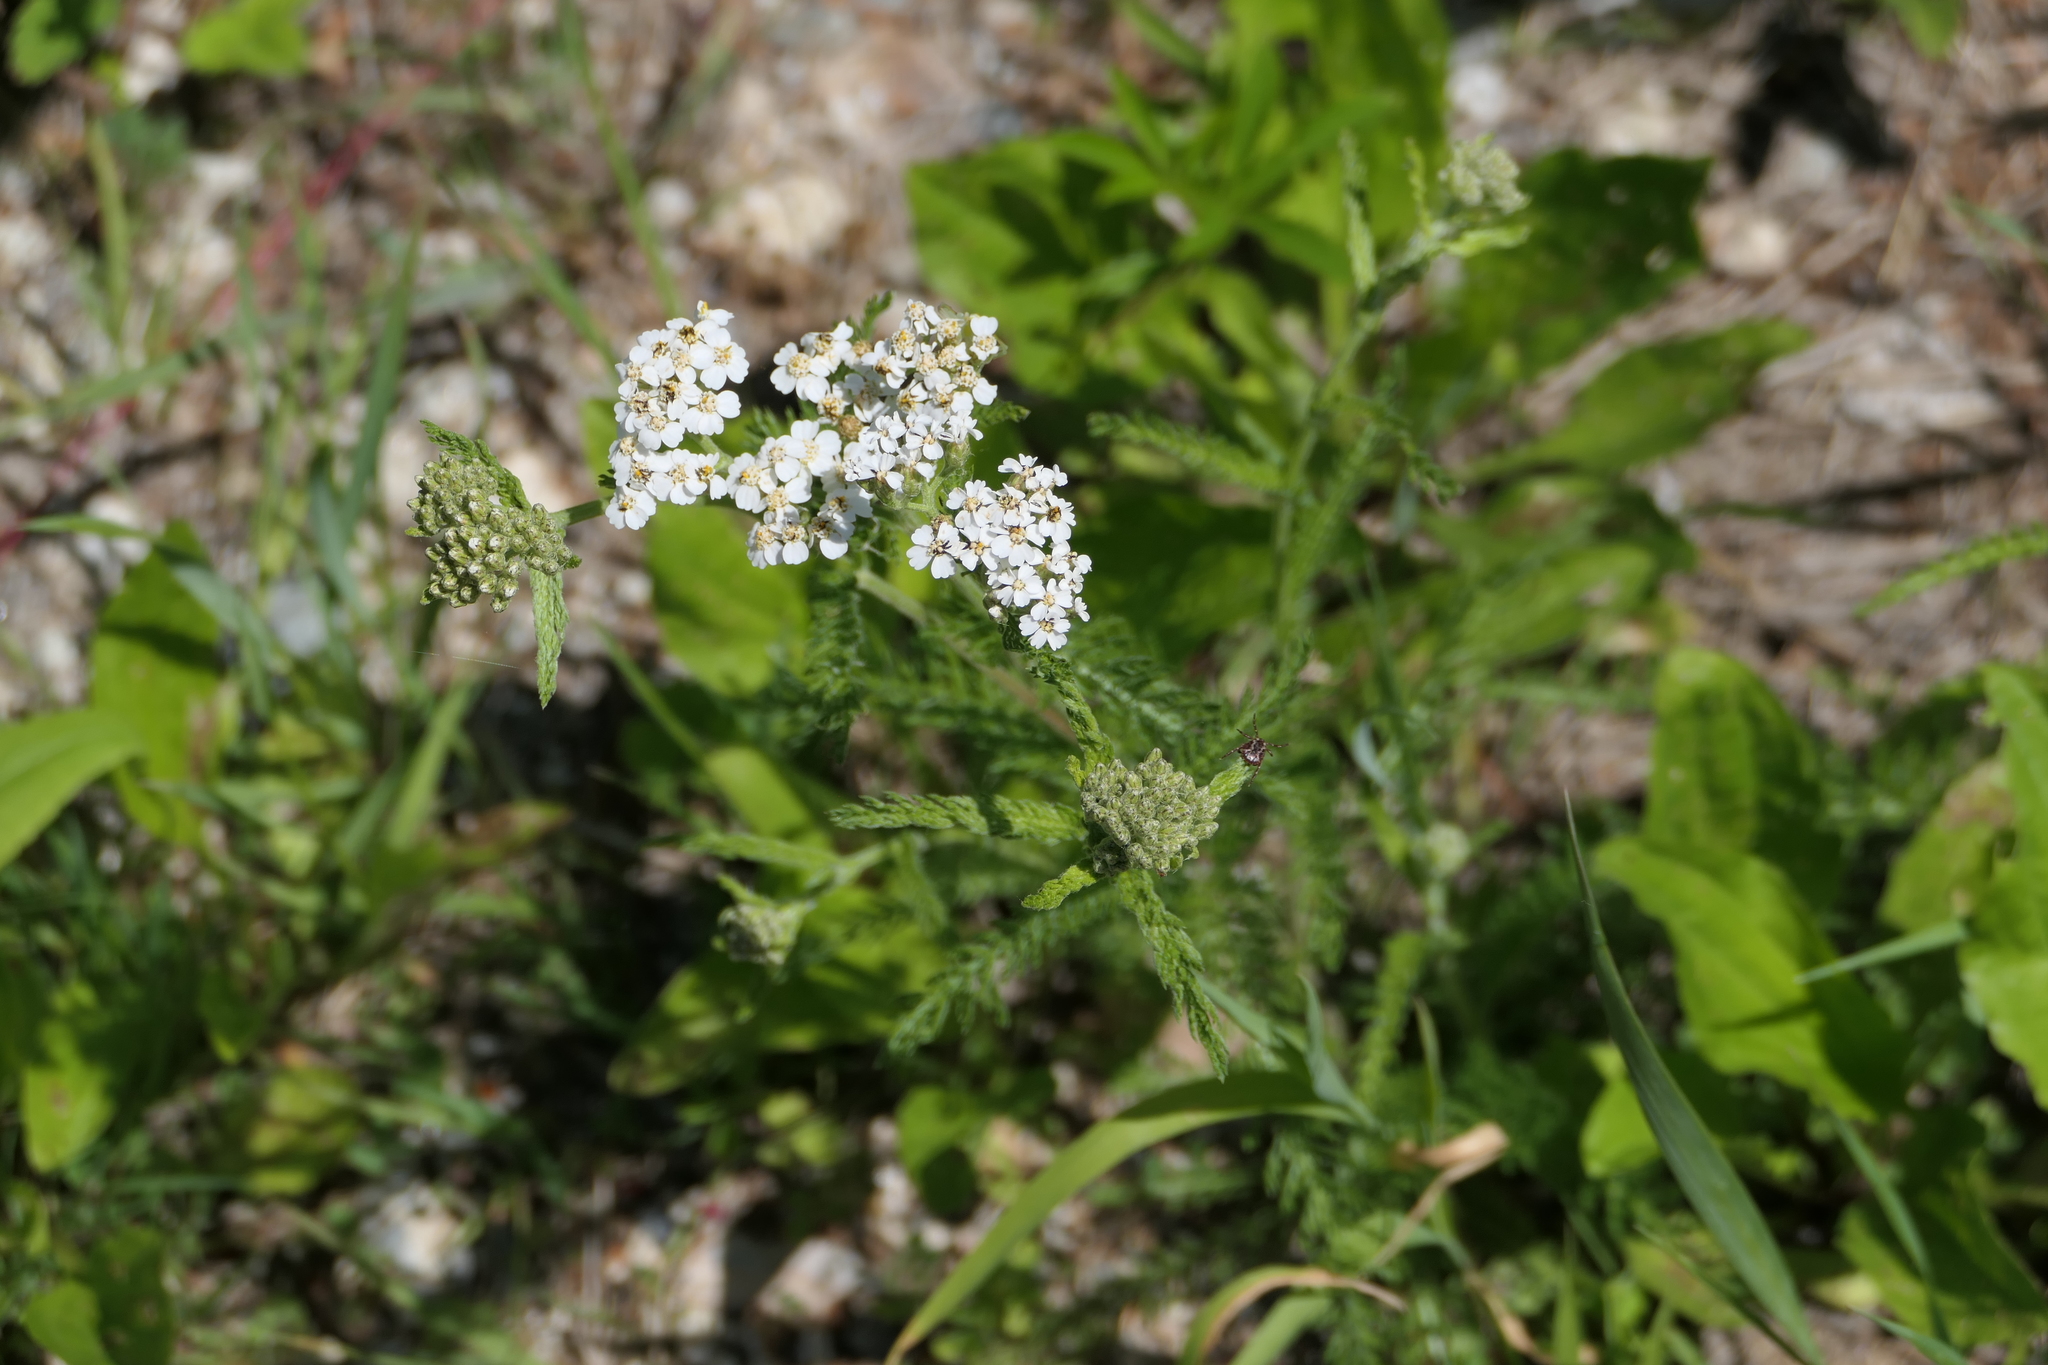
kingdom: Plantae
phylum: Tracheophyta
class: Magnoliopsida
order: Asterales
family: Asteraceae
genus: Achillea
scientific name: Achillea millefolium
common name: Yarrow
